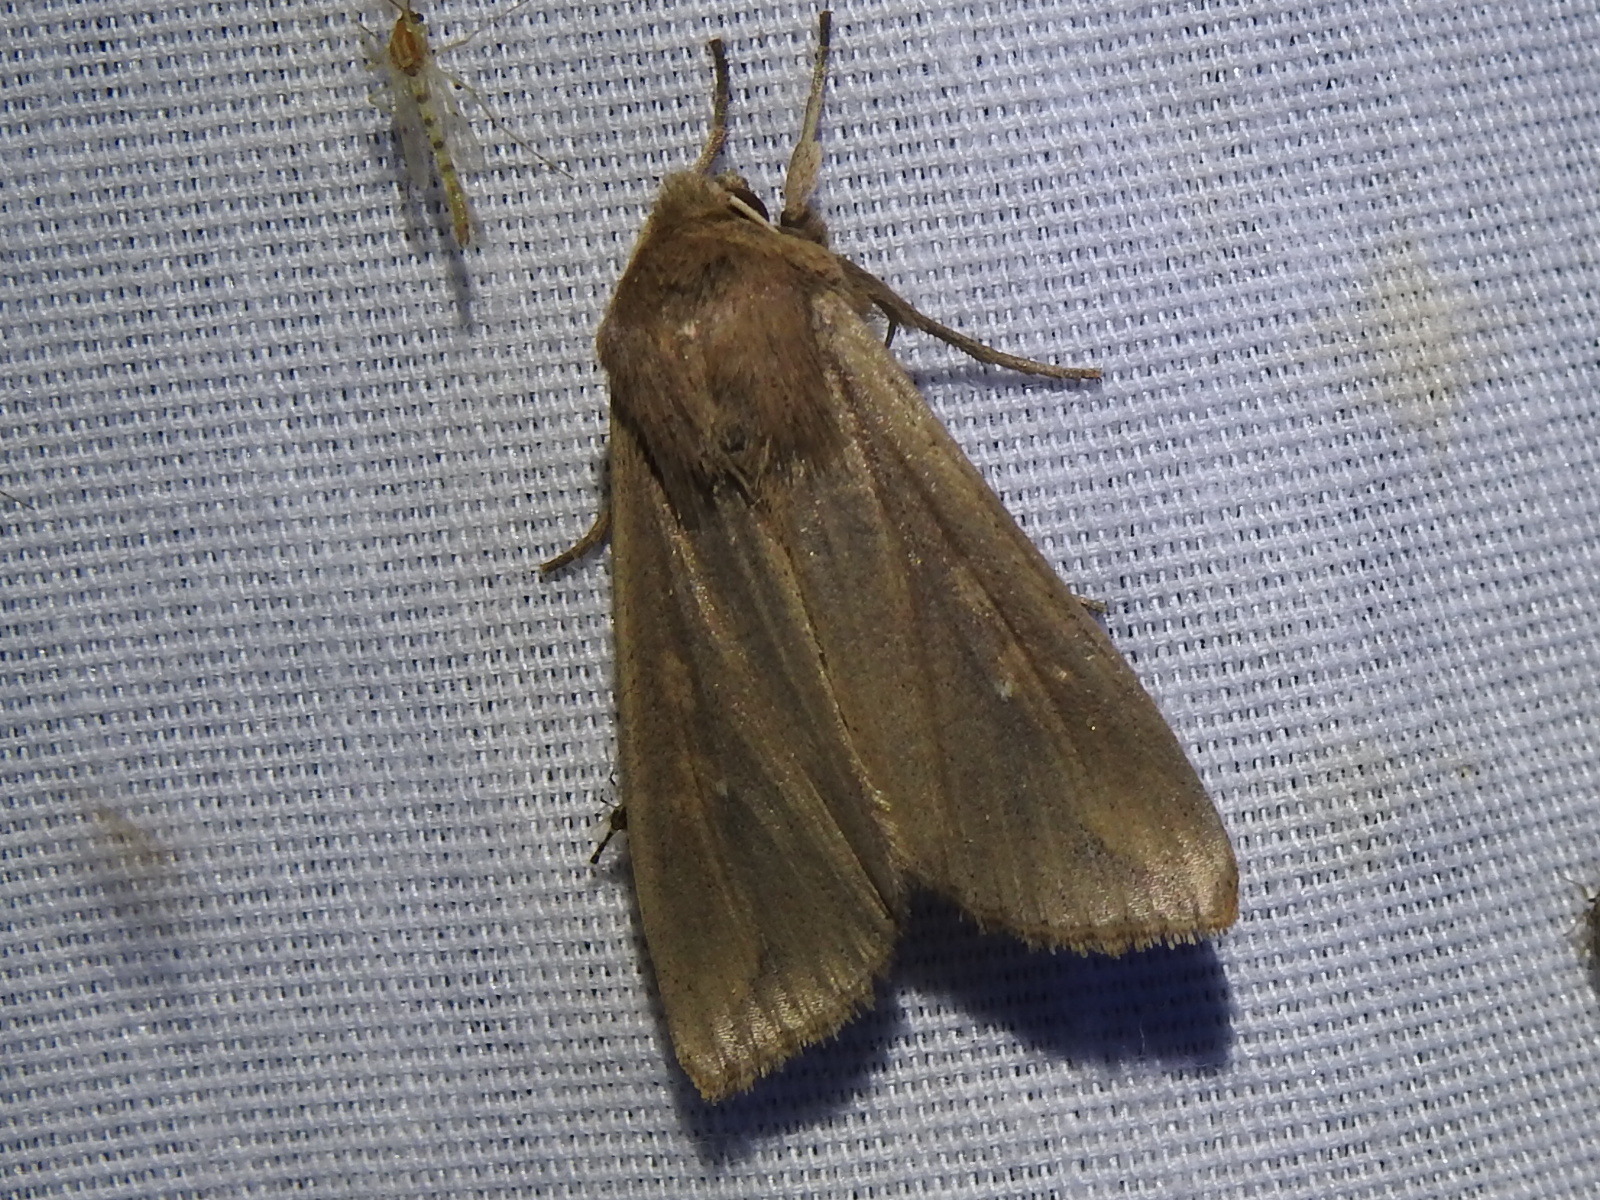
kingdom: Animalia
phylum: Arthropoda
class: Insecta
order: Lepidoptera
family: Noctuidae
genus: Mythimna
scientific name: Mythimna unipuncta
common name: White-speck
